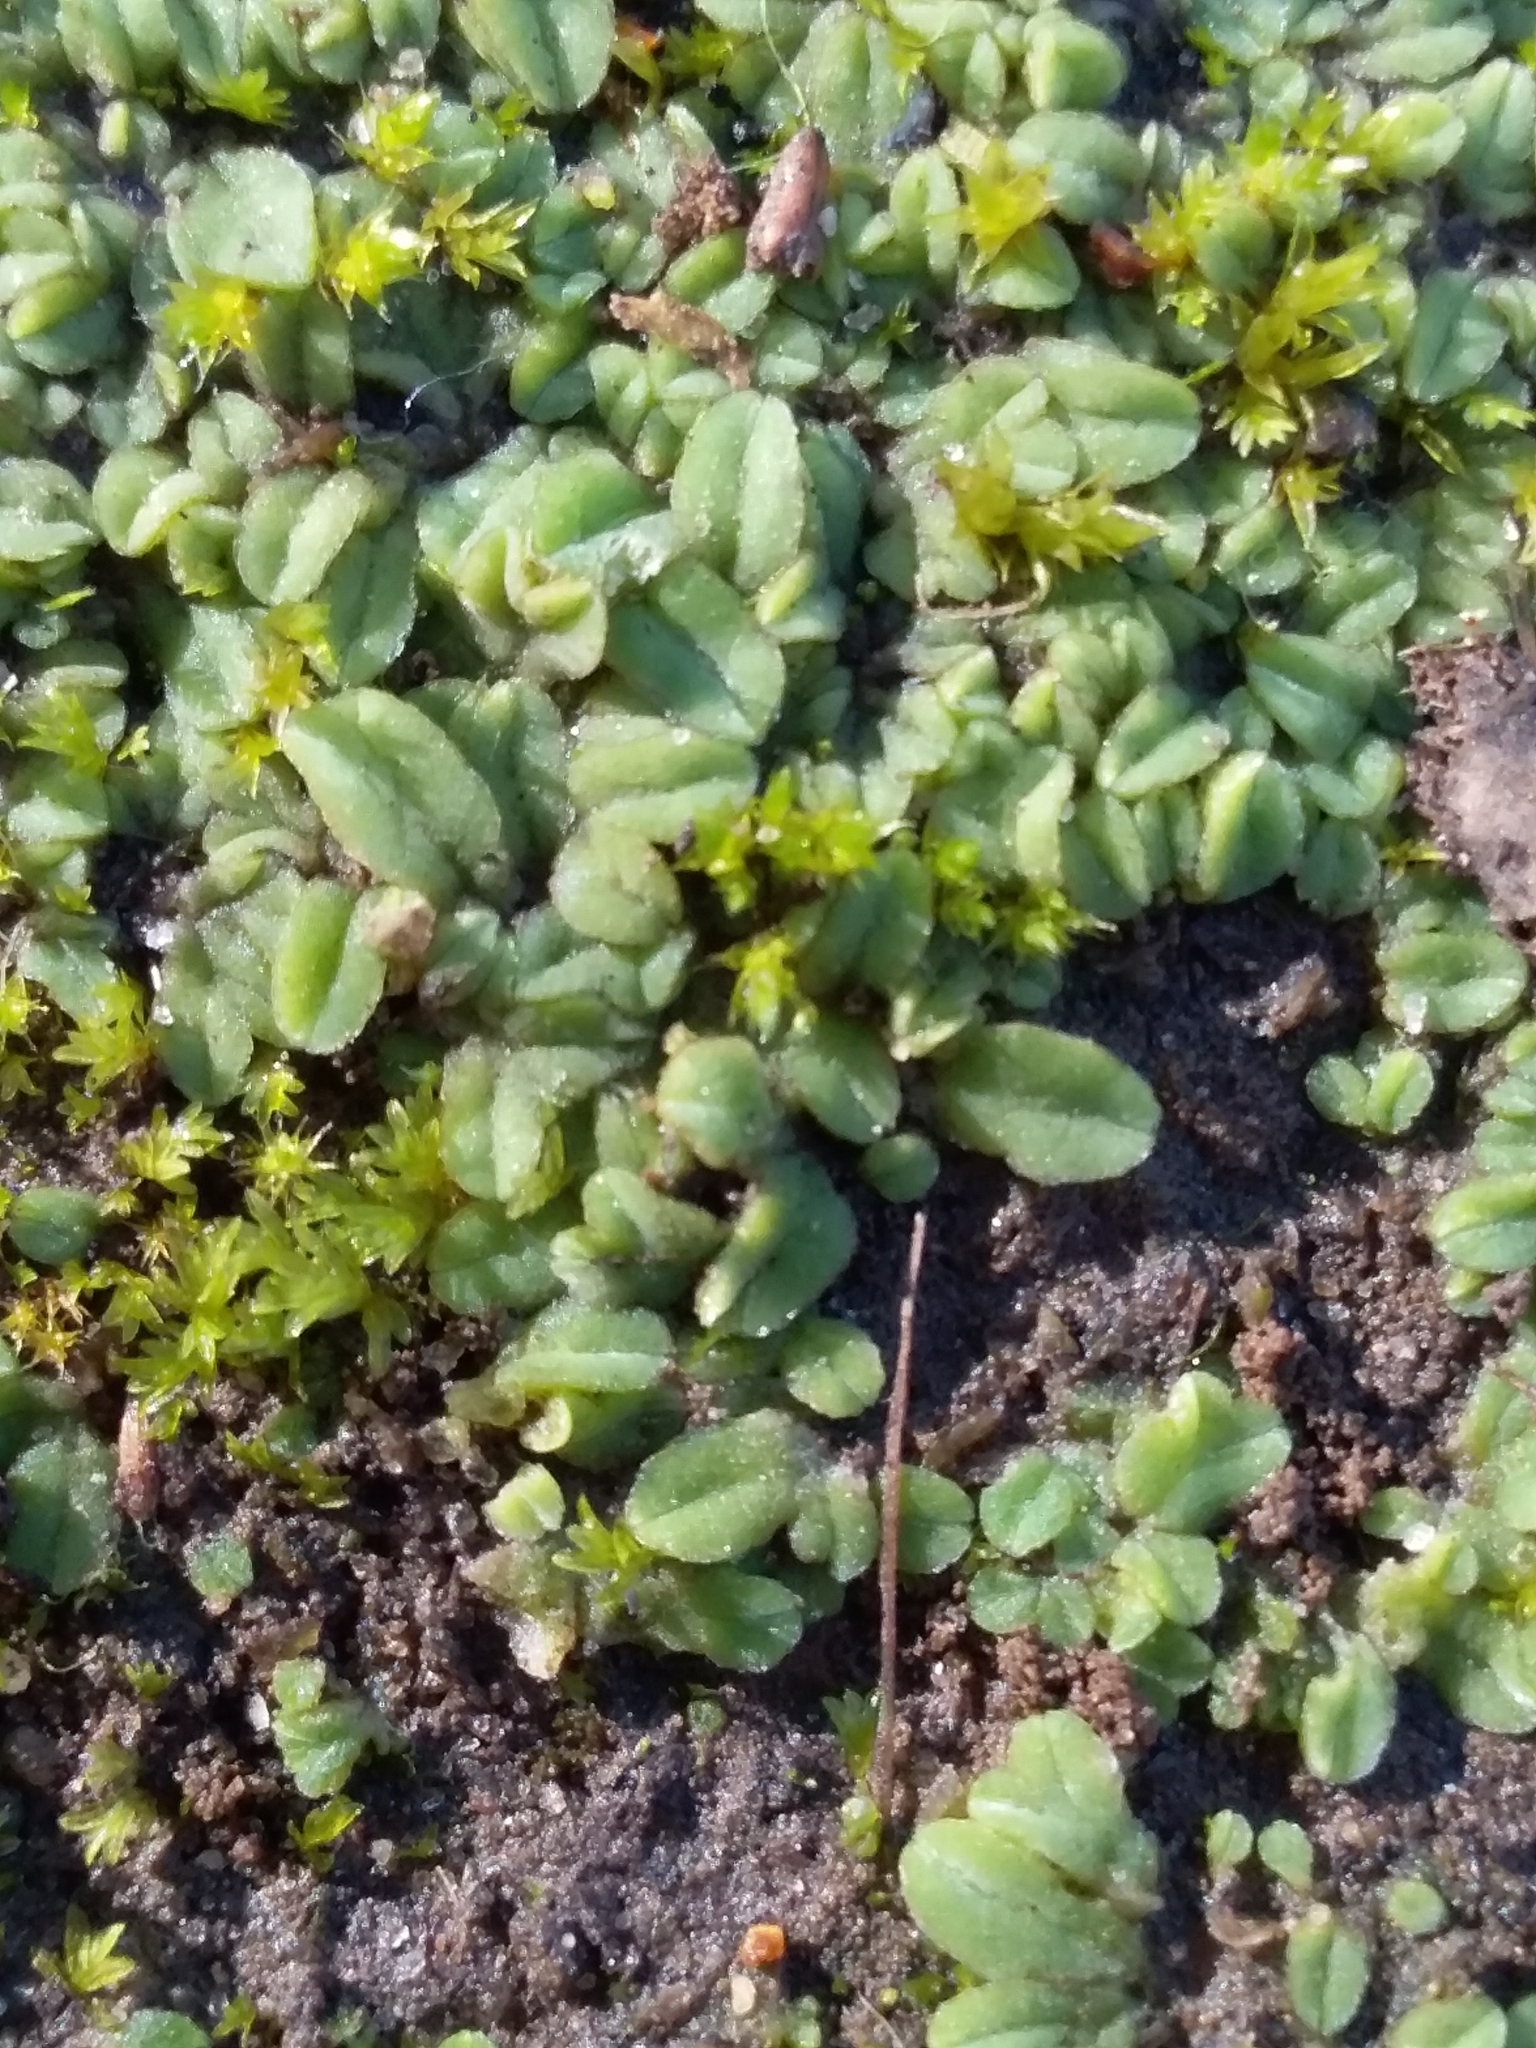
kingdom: Plantae
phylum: Marchantiophyta
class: Marchantiopsida
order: Marchantiales
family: Ricciaceae
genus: Riccia
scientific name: Riccia sorocarpa
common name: Common crystalwort
